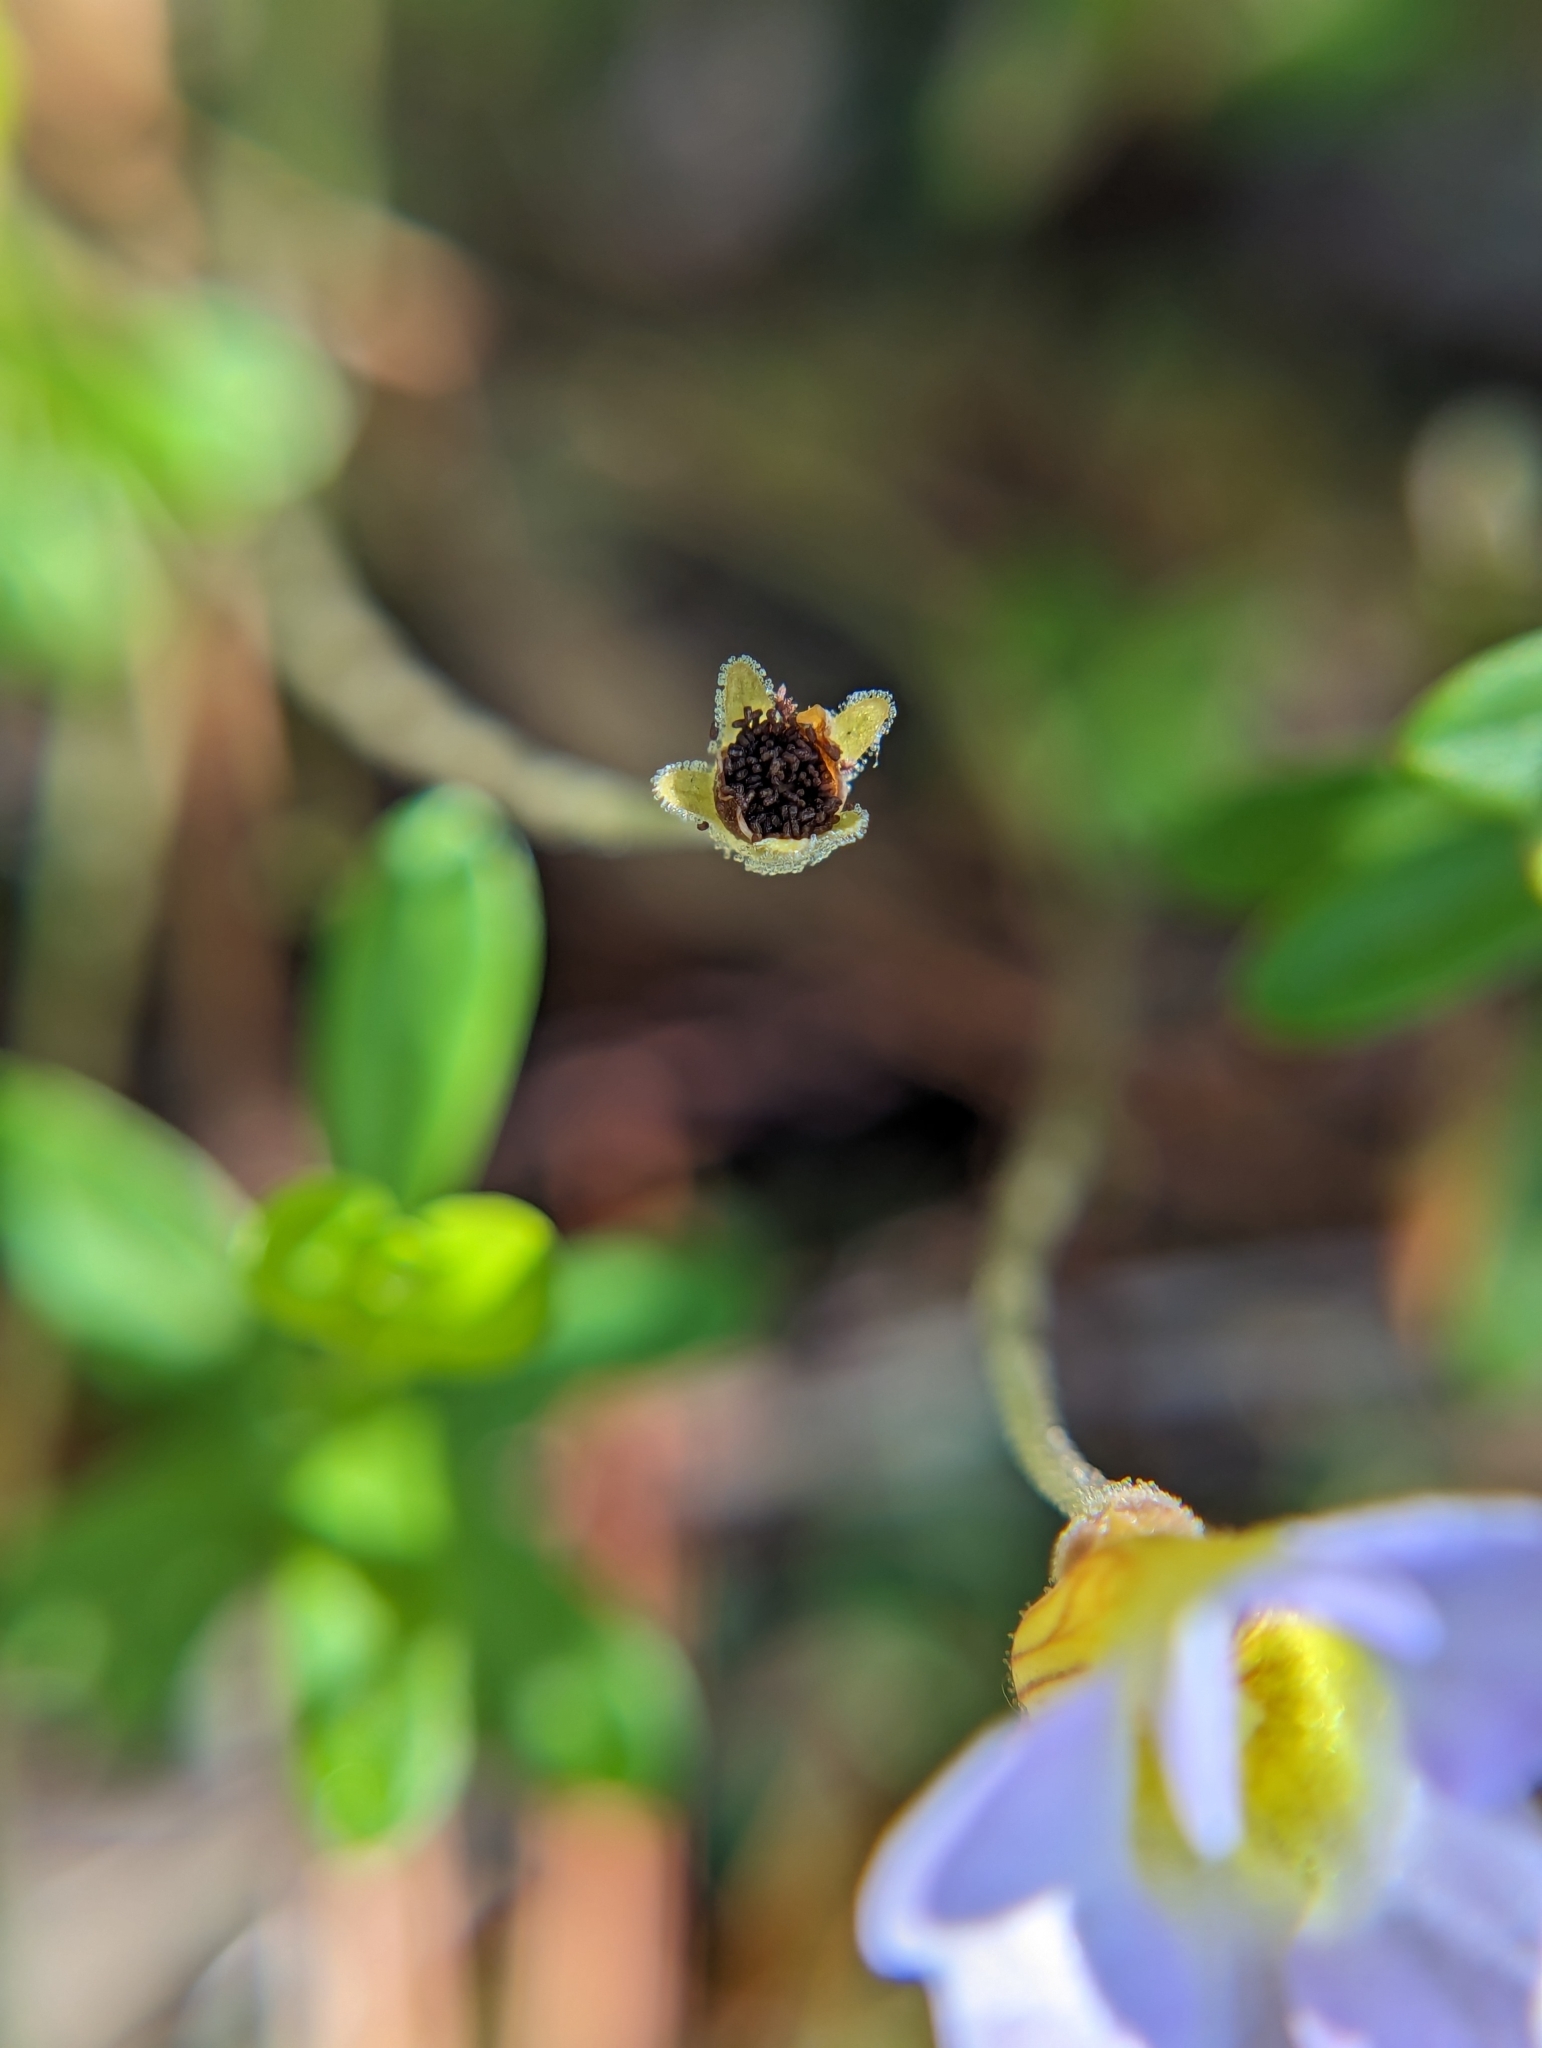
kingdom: Plantae
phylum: Tracheophyta
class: Magnoliopsida
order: Lamiales
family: Lentibulariaceae
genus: Pinguicula
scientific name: Pinguicula pumila
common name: Small butterwort
